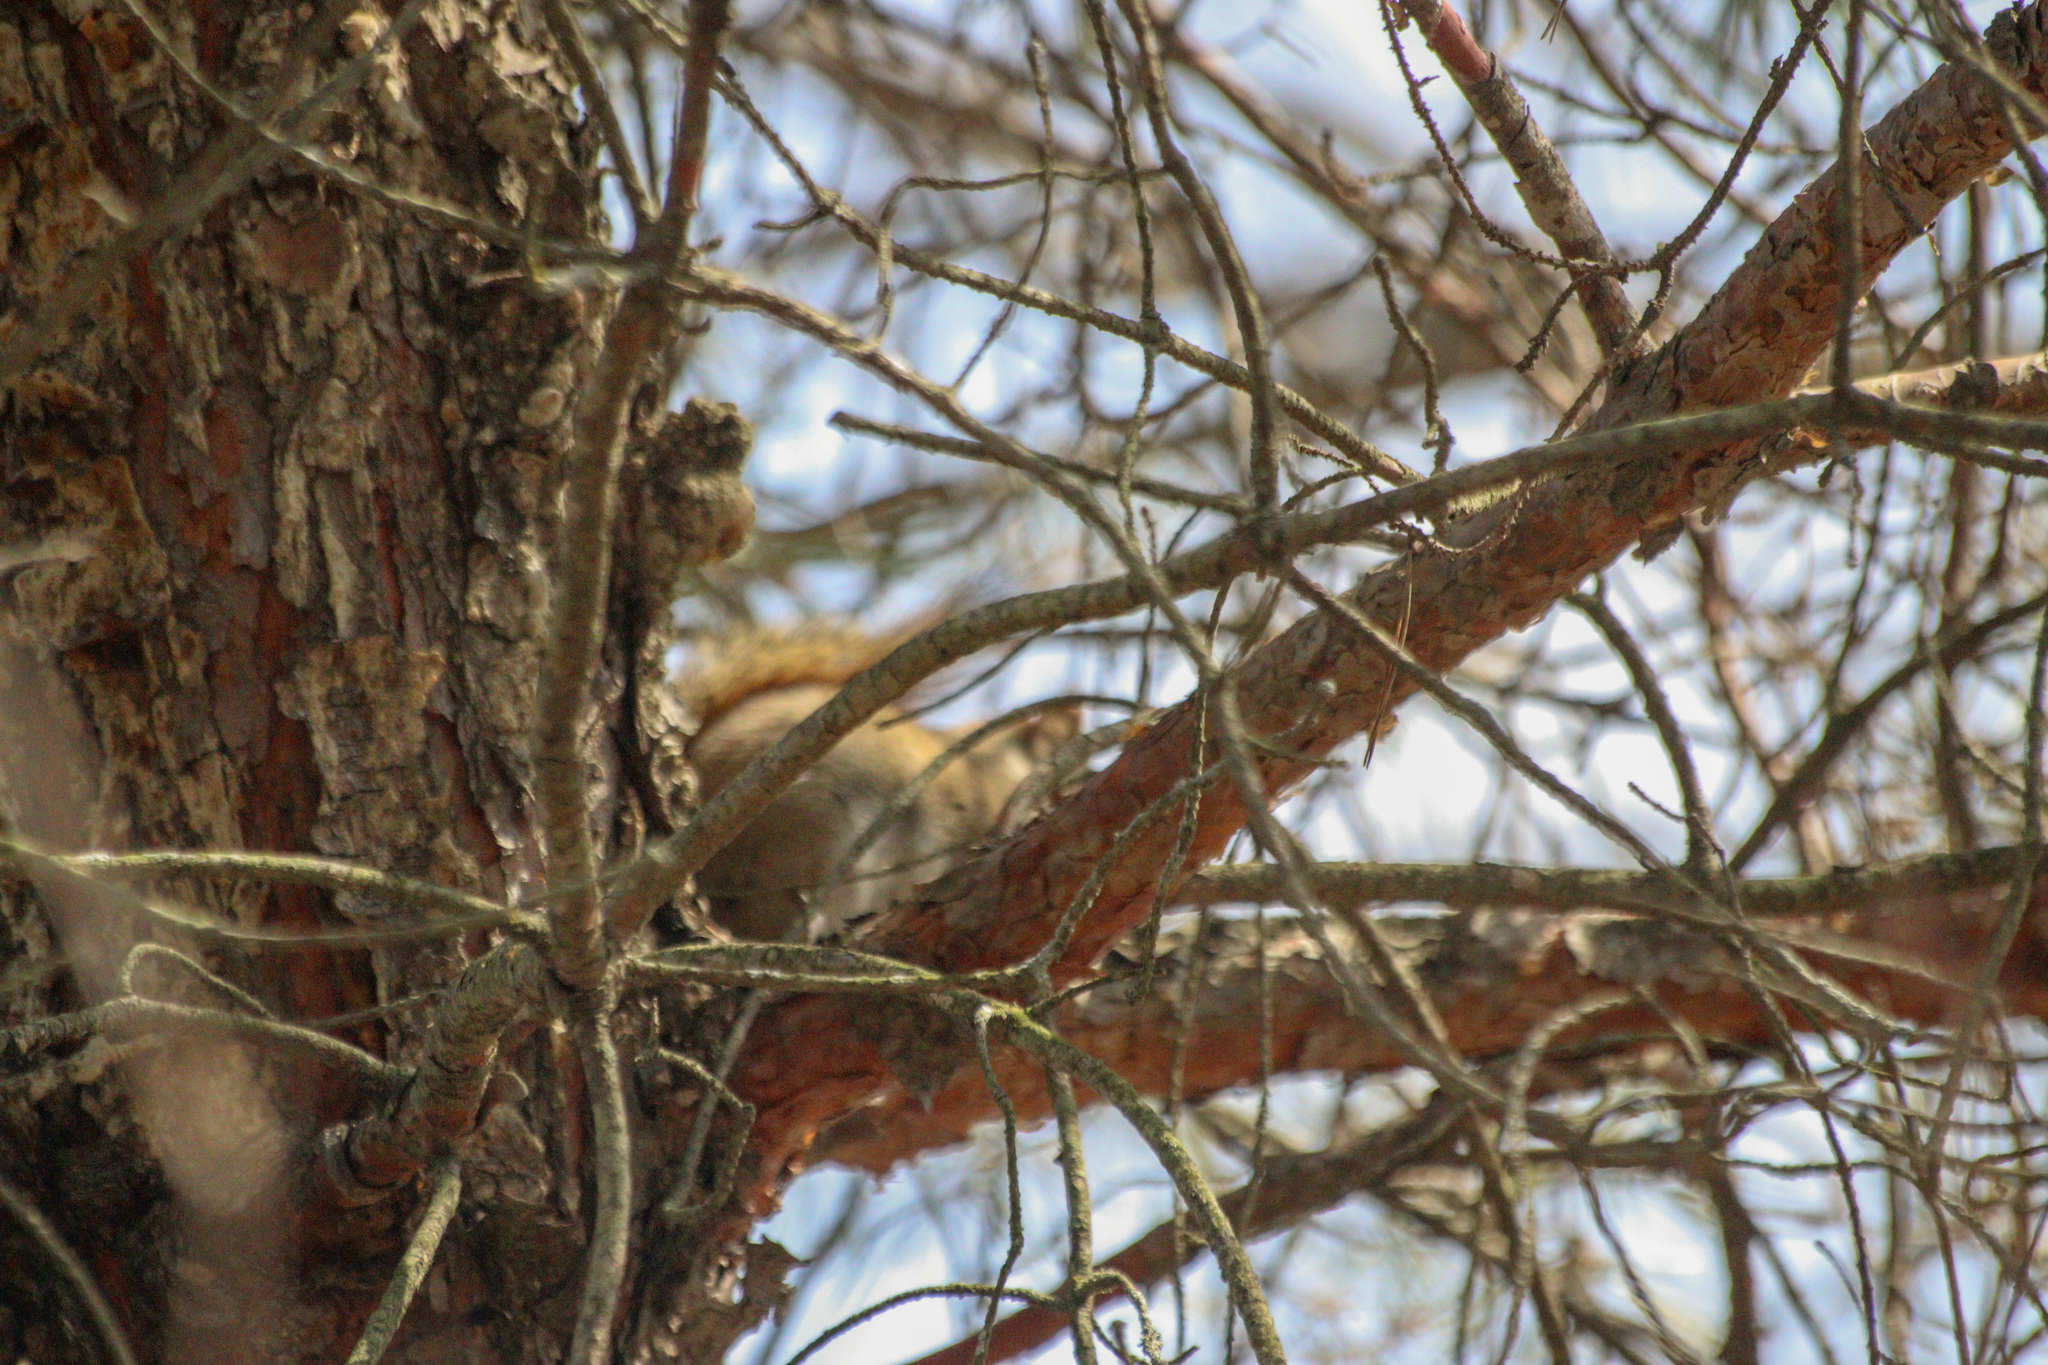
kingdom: Animalia
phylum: Chordata
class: Mammalia
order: Rodentia
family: Sciuridae
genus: Tamiasciurus
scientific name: Tamiasciurus hudsonicus
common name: Red squirrel
